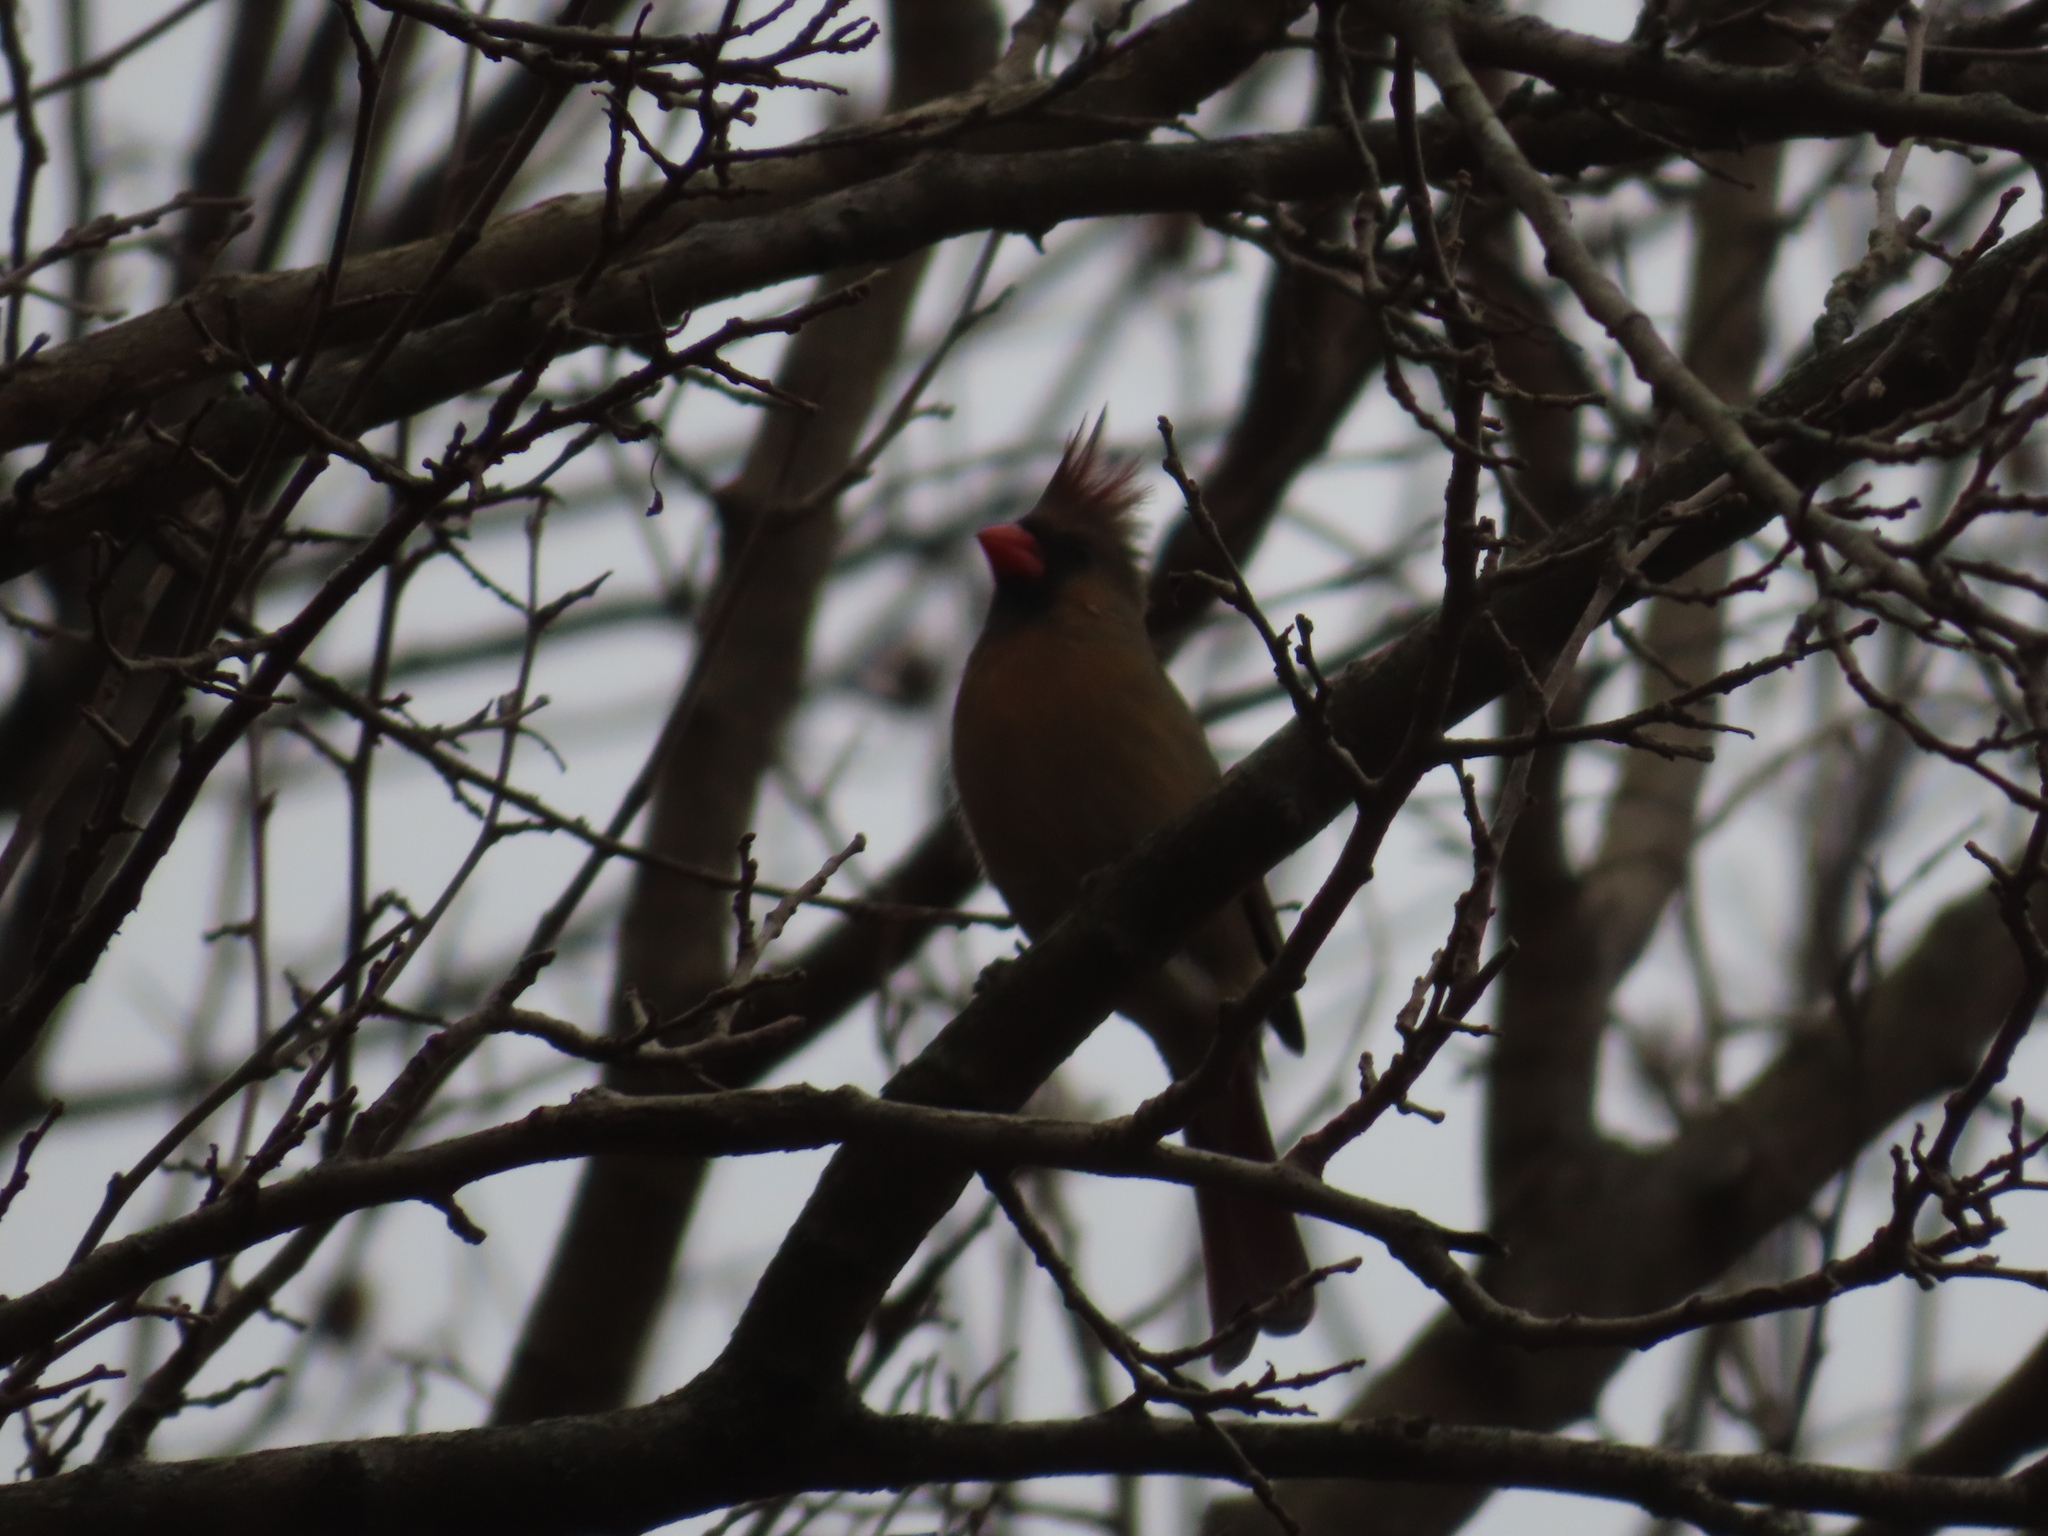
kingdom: Animalia
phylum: Chordata
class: Aves
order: Passeriformes
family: Cardinalidae
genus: Cardinalis
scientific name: Cardinalis cardinalis
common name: Northern cardinal
